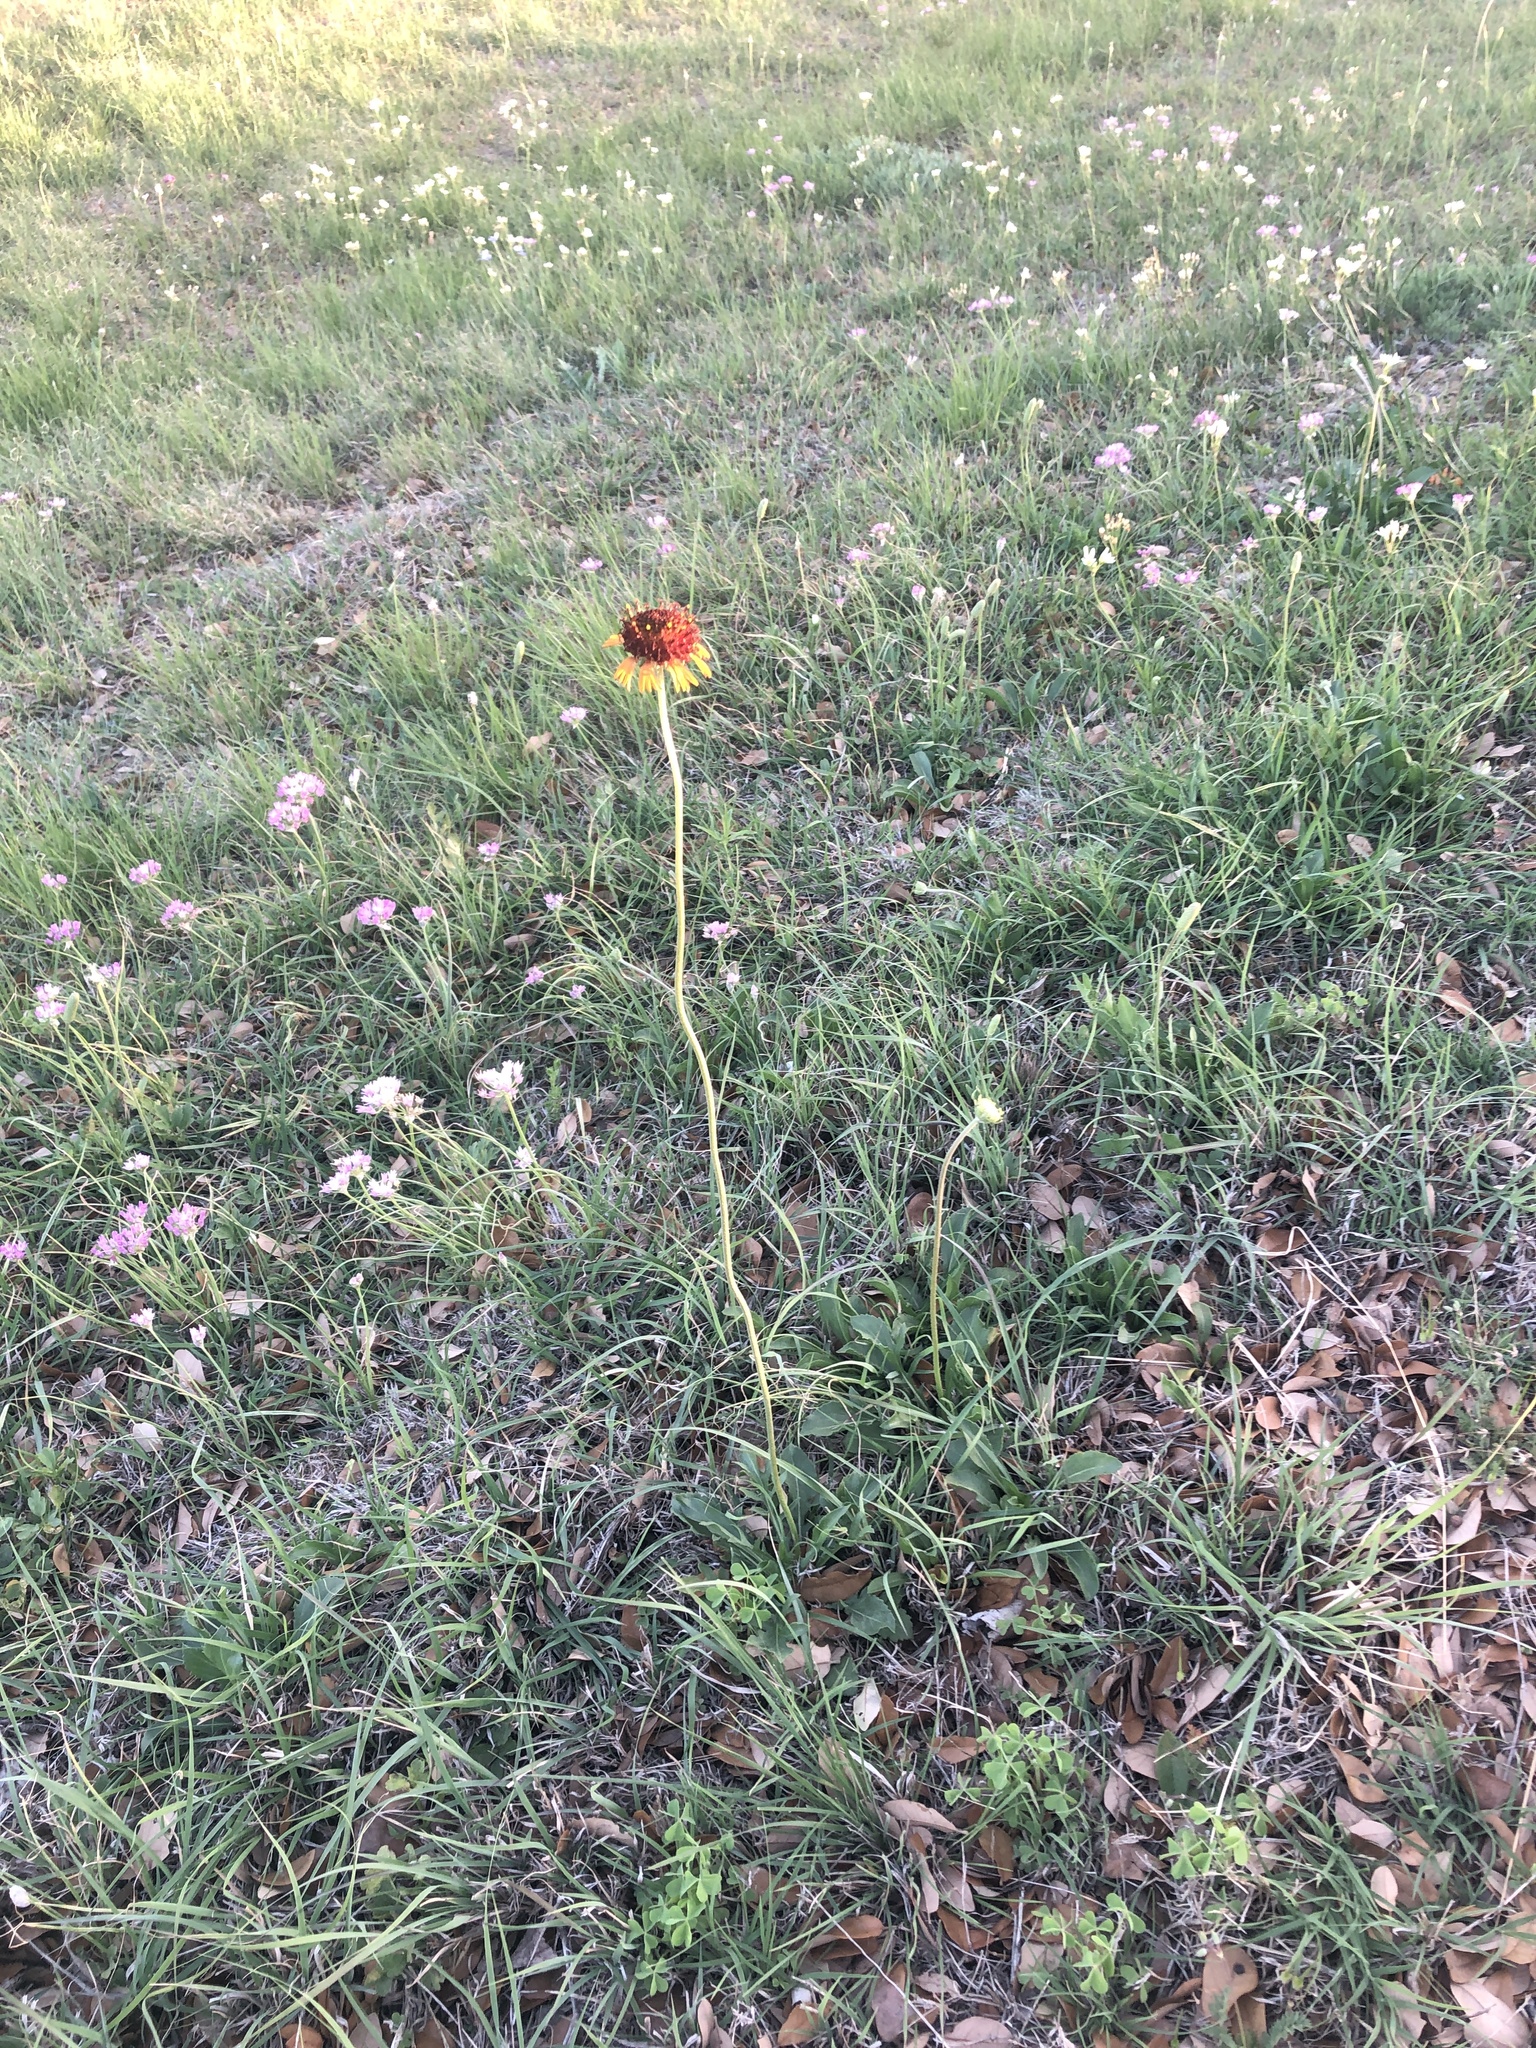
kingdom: Plantae
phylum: Tracheophyta
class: Magnoliopsida
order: Asterales
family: Asteraceae
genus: Gaillardia
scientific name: Gaillardia suavis
